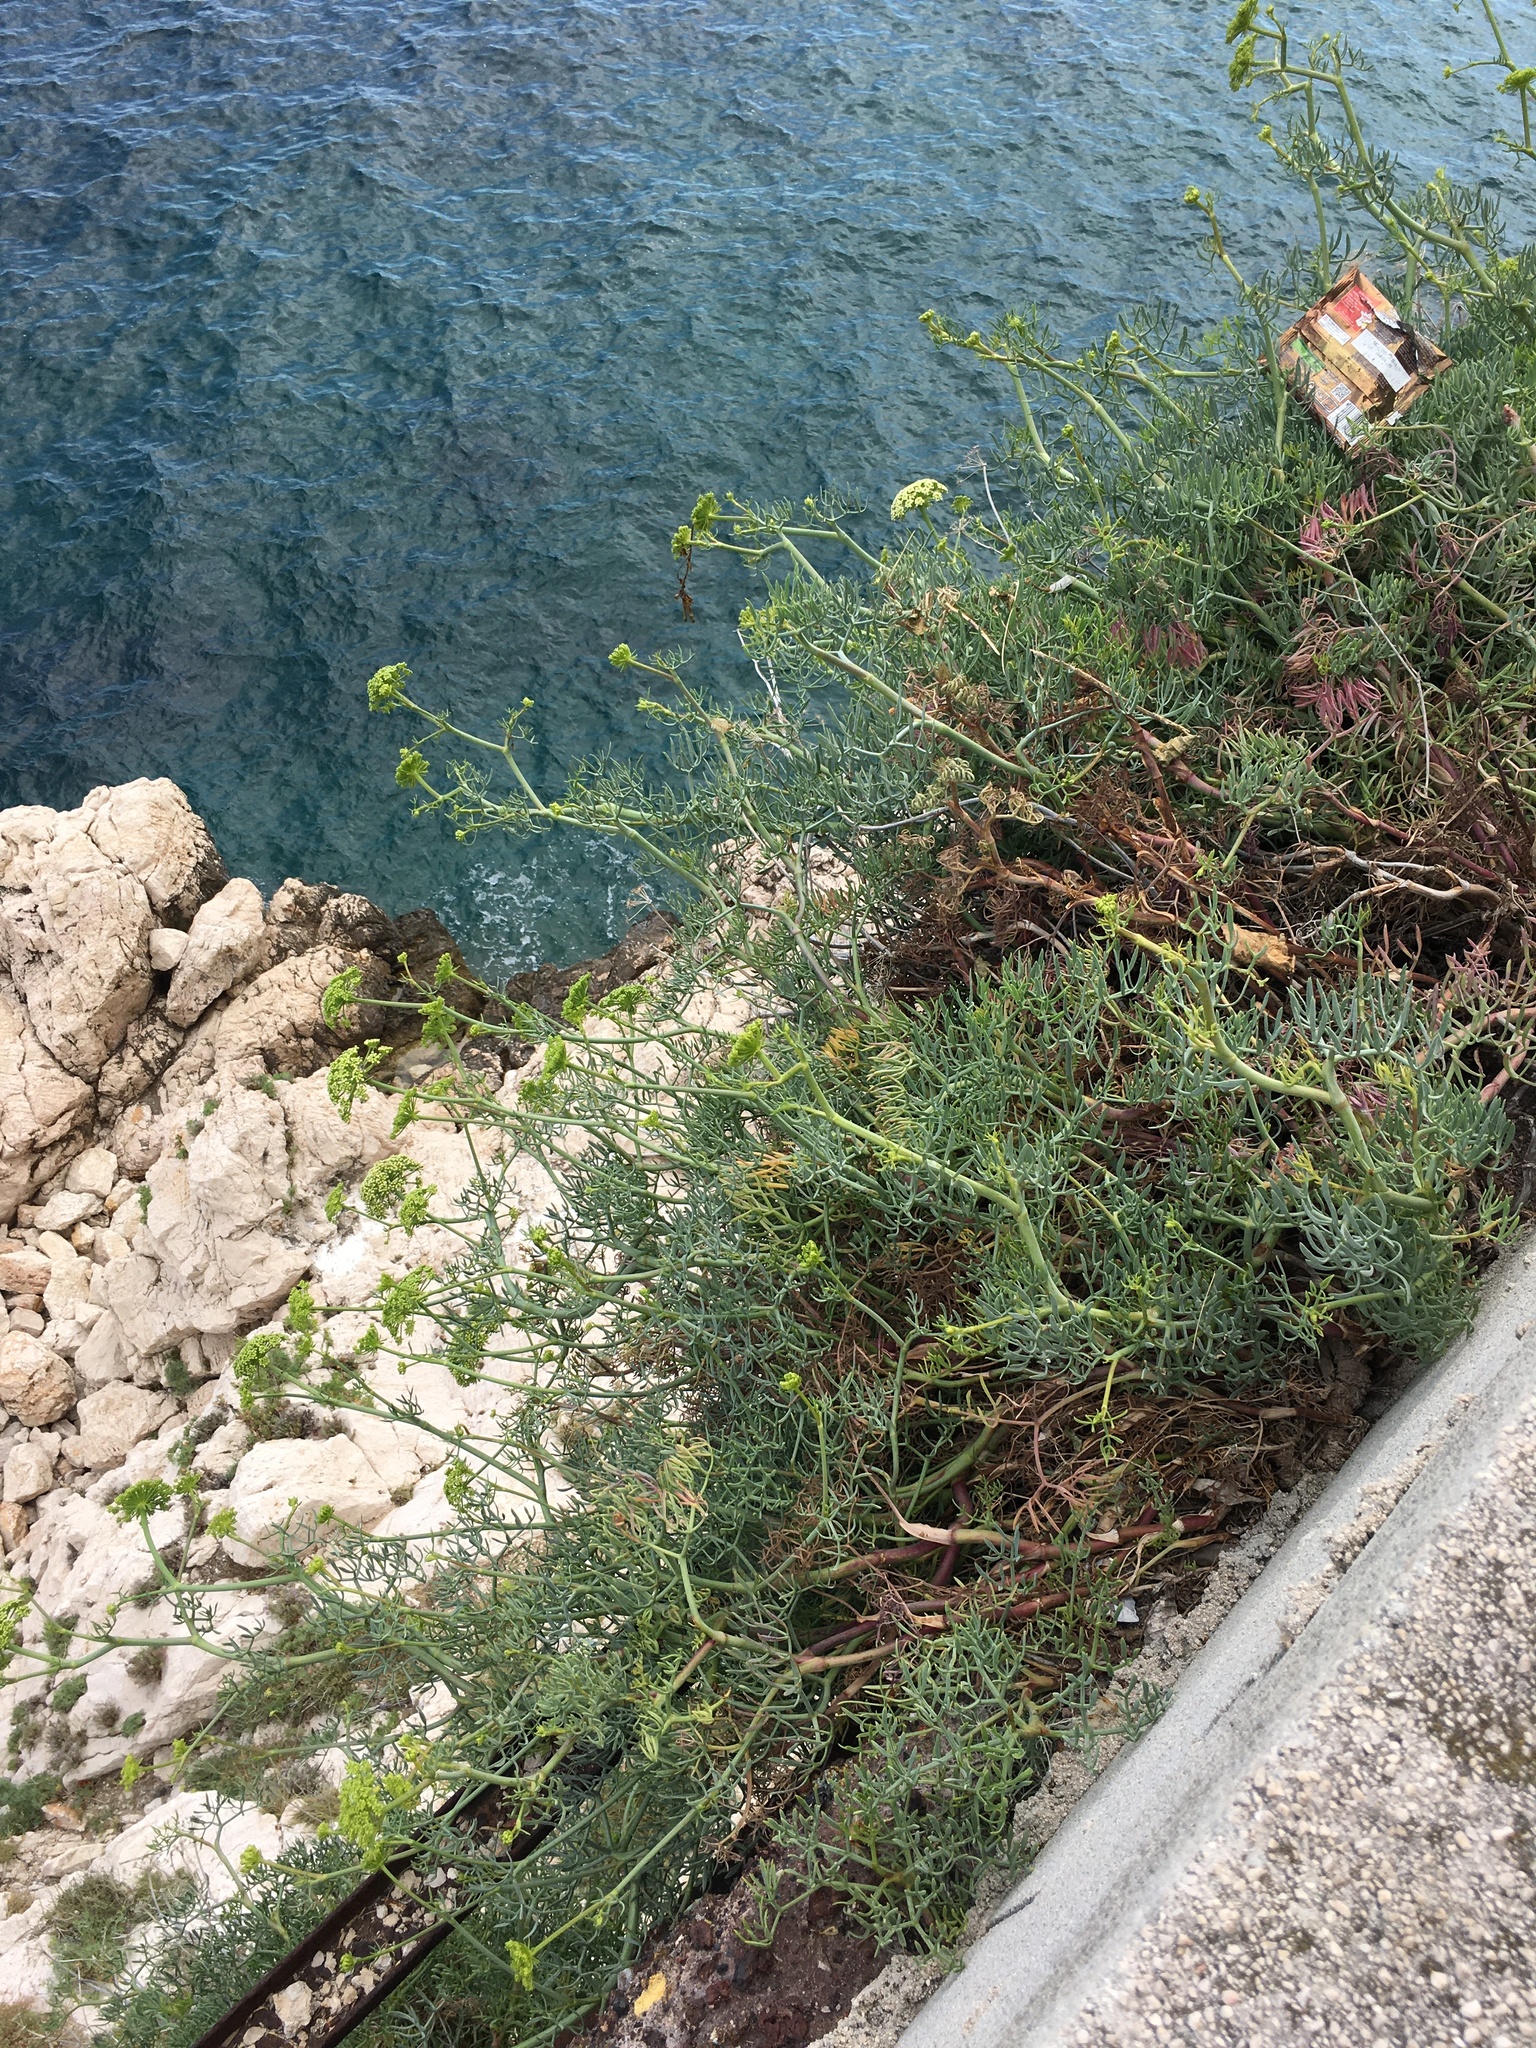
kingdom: Plantae
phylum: Tracheophyta
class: Magnoliopsida
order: Apiales
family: Apiaceae
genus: Crithmum
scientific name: Crithmum maritimum
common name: Rock samphire
